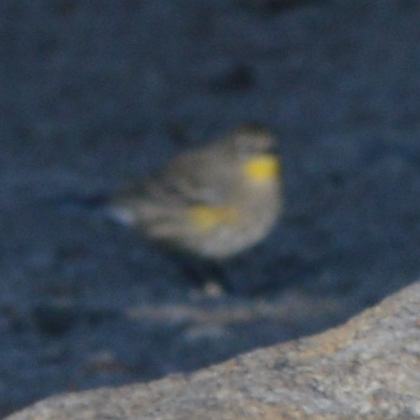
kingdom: Animalia
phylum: Chordata
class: Aves
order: Passeriformes
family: Parulidae
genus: Setophaga
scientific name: Setophaga coronata
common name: Myrtle warbler
